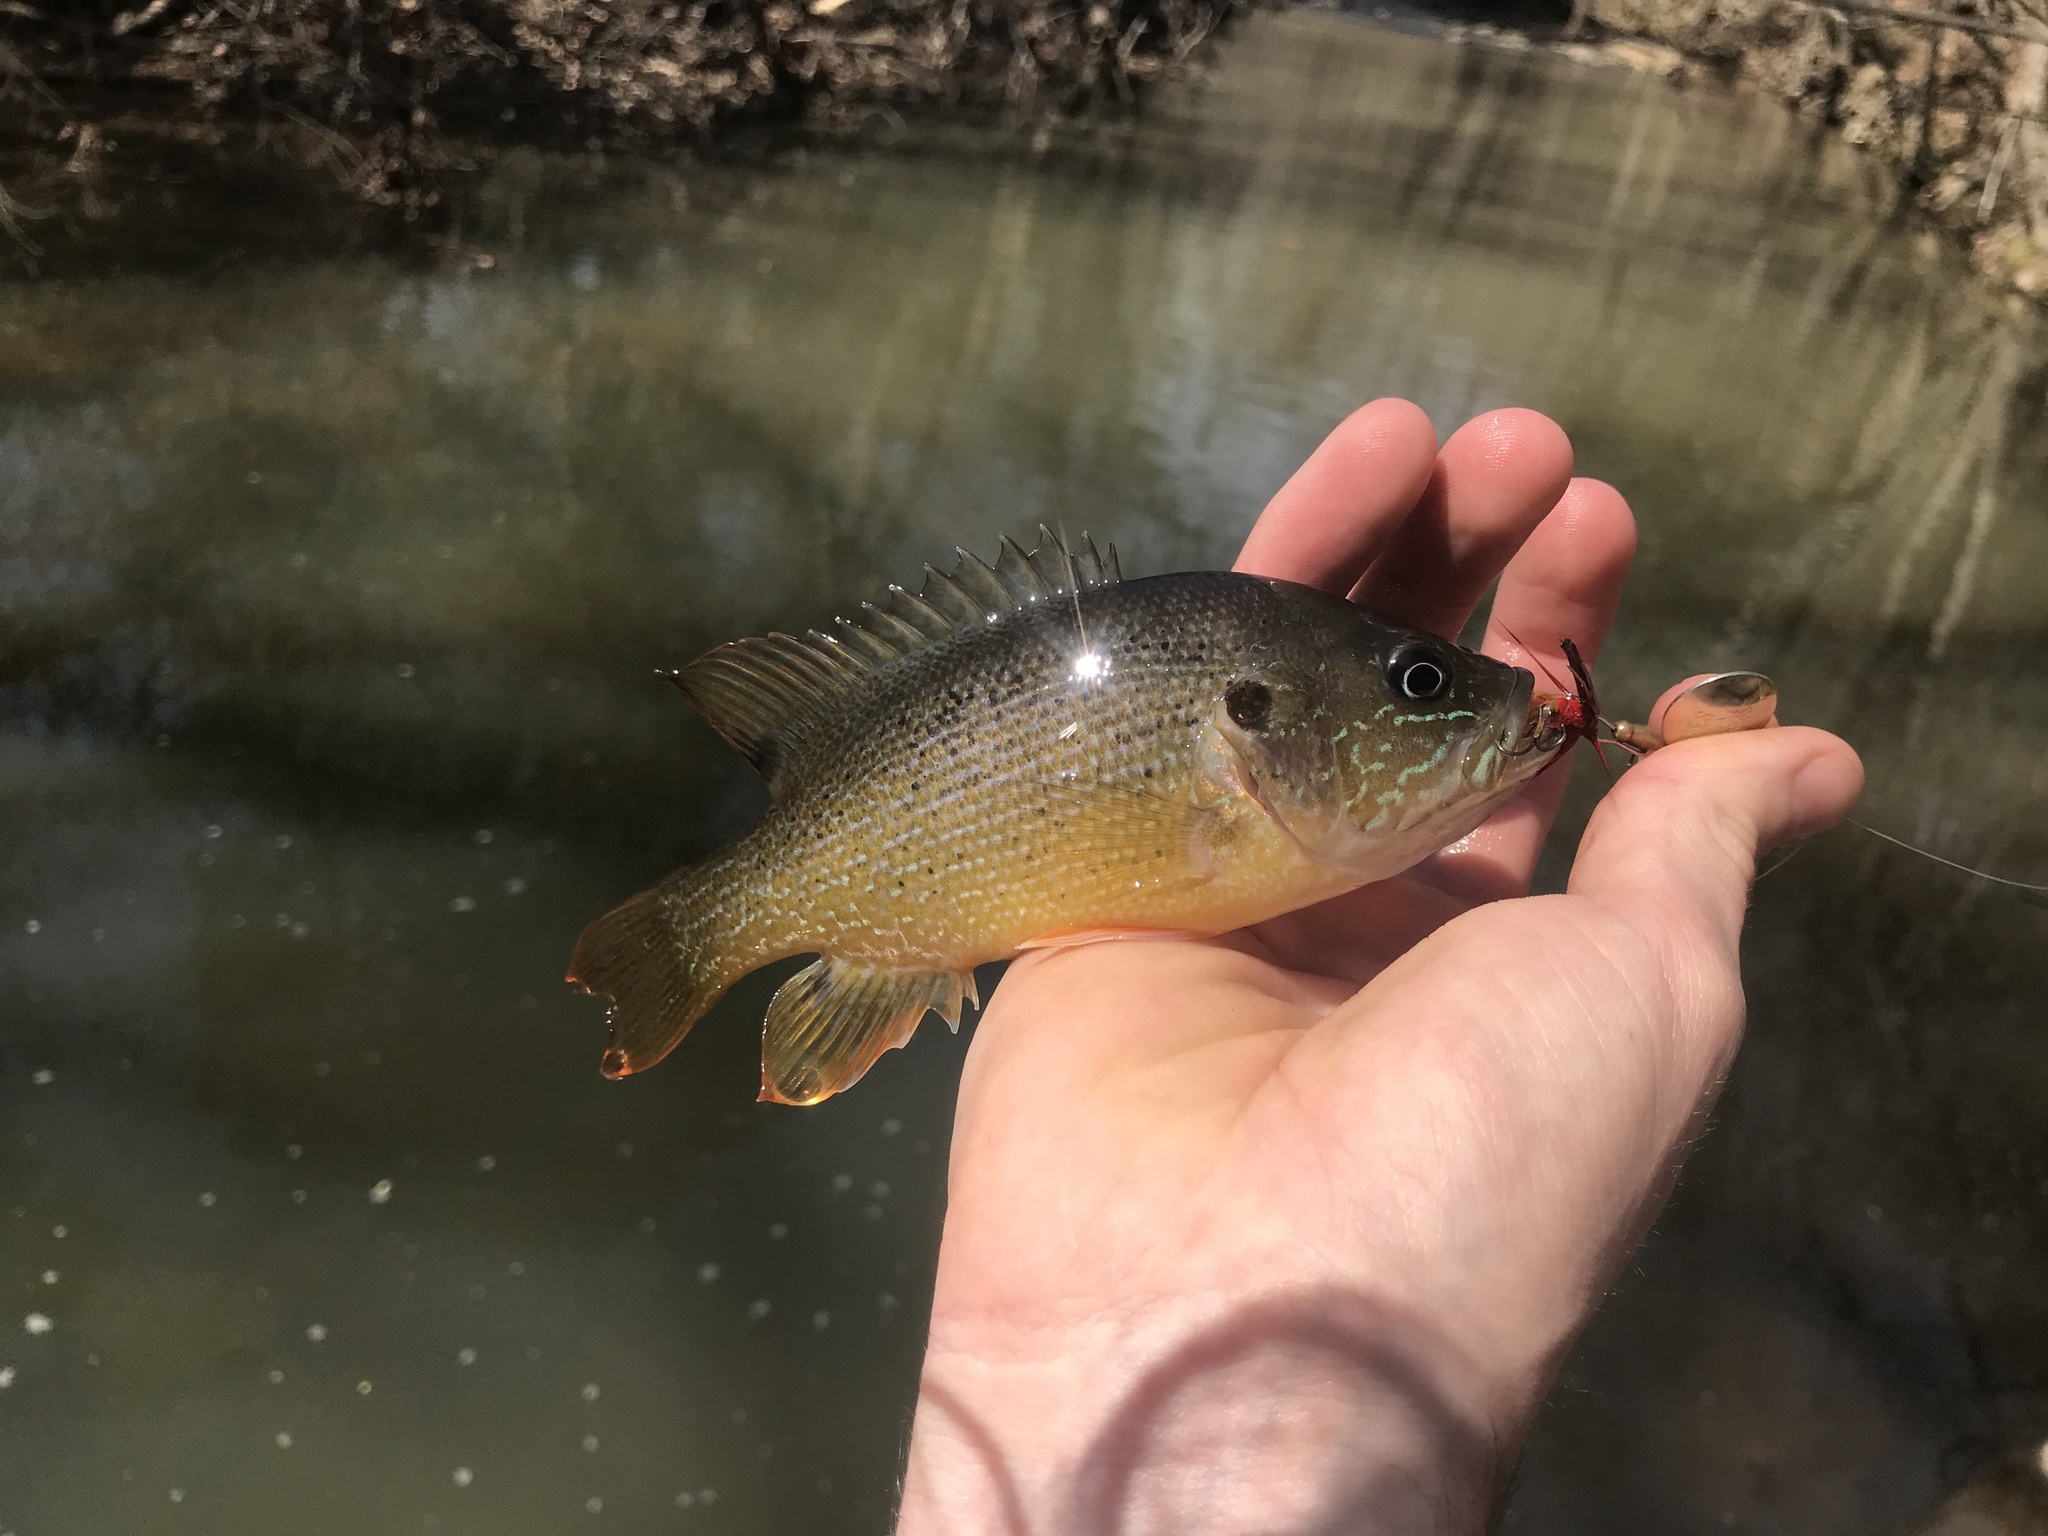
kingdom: Animalia
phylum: Chordata
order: Perciformes
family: Centrarchidae
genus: Lepomis
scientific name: Lepomis cyanellus
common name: Green sunfish
